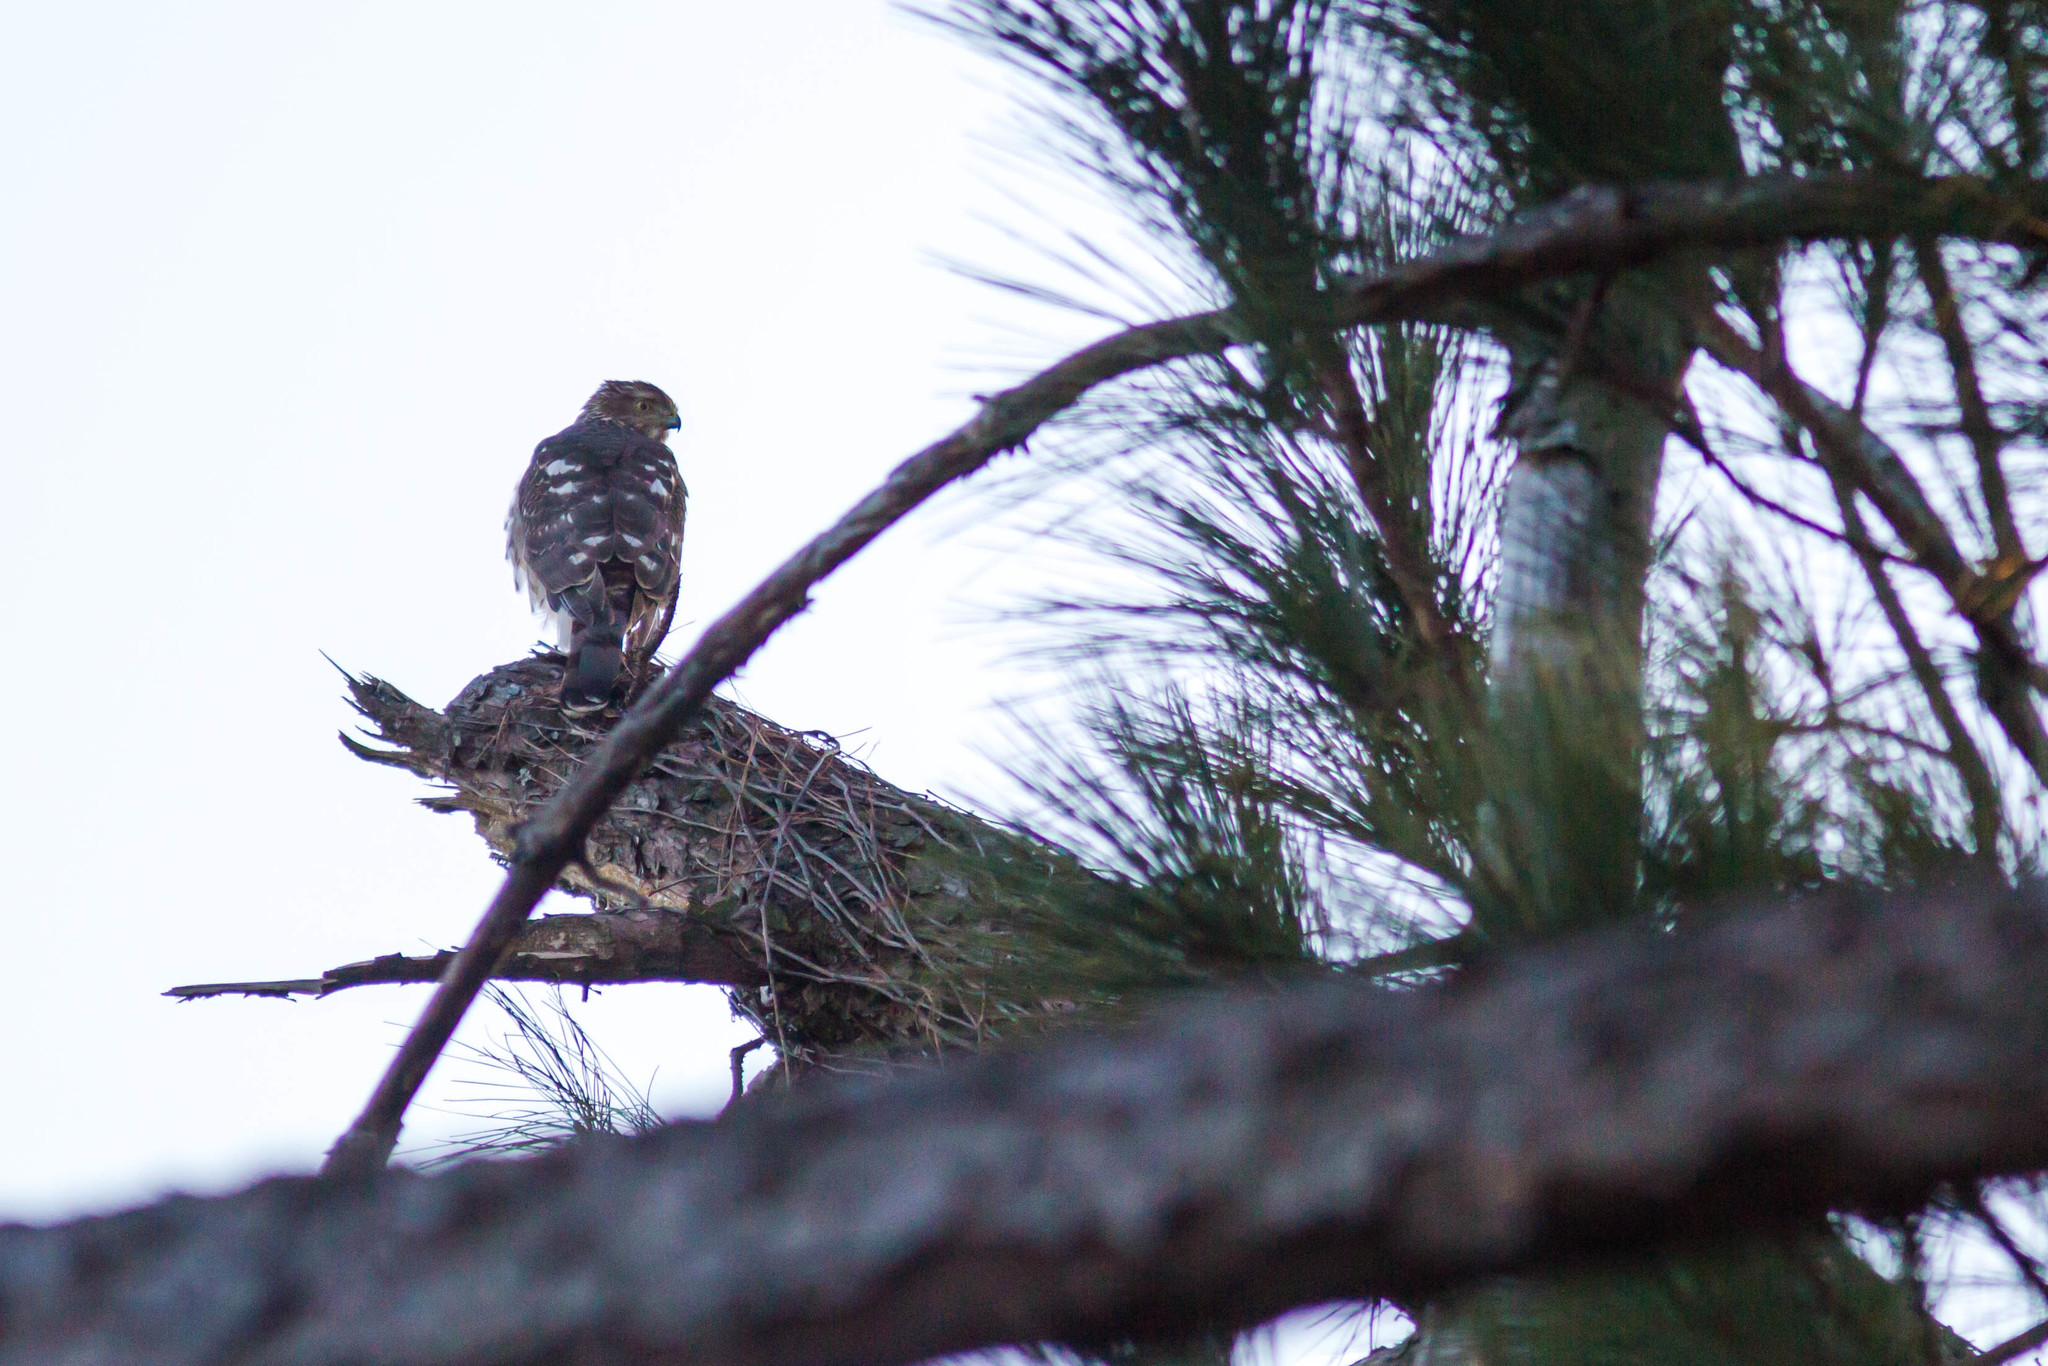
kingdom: Animalia
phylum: Chordata
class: Aves
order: Accipitriformes
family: Accipitridae
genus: Accipiter
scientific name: Accipiter cooperii
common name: Cooper's hawk
